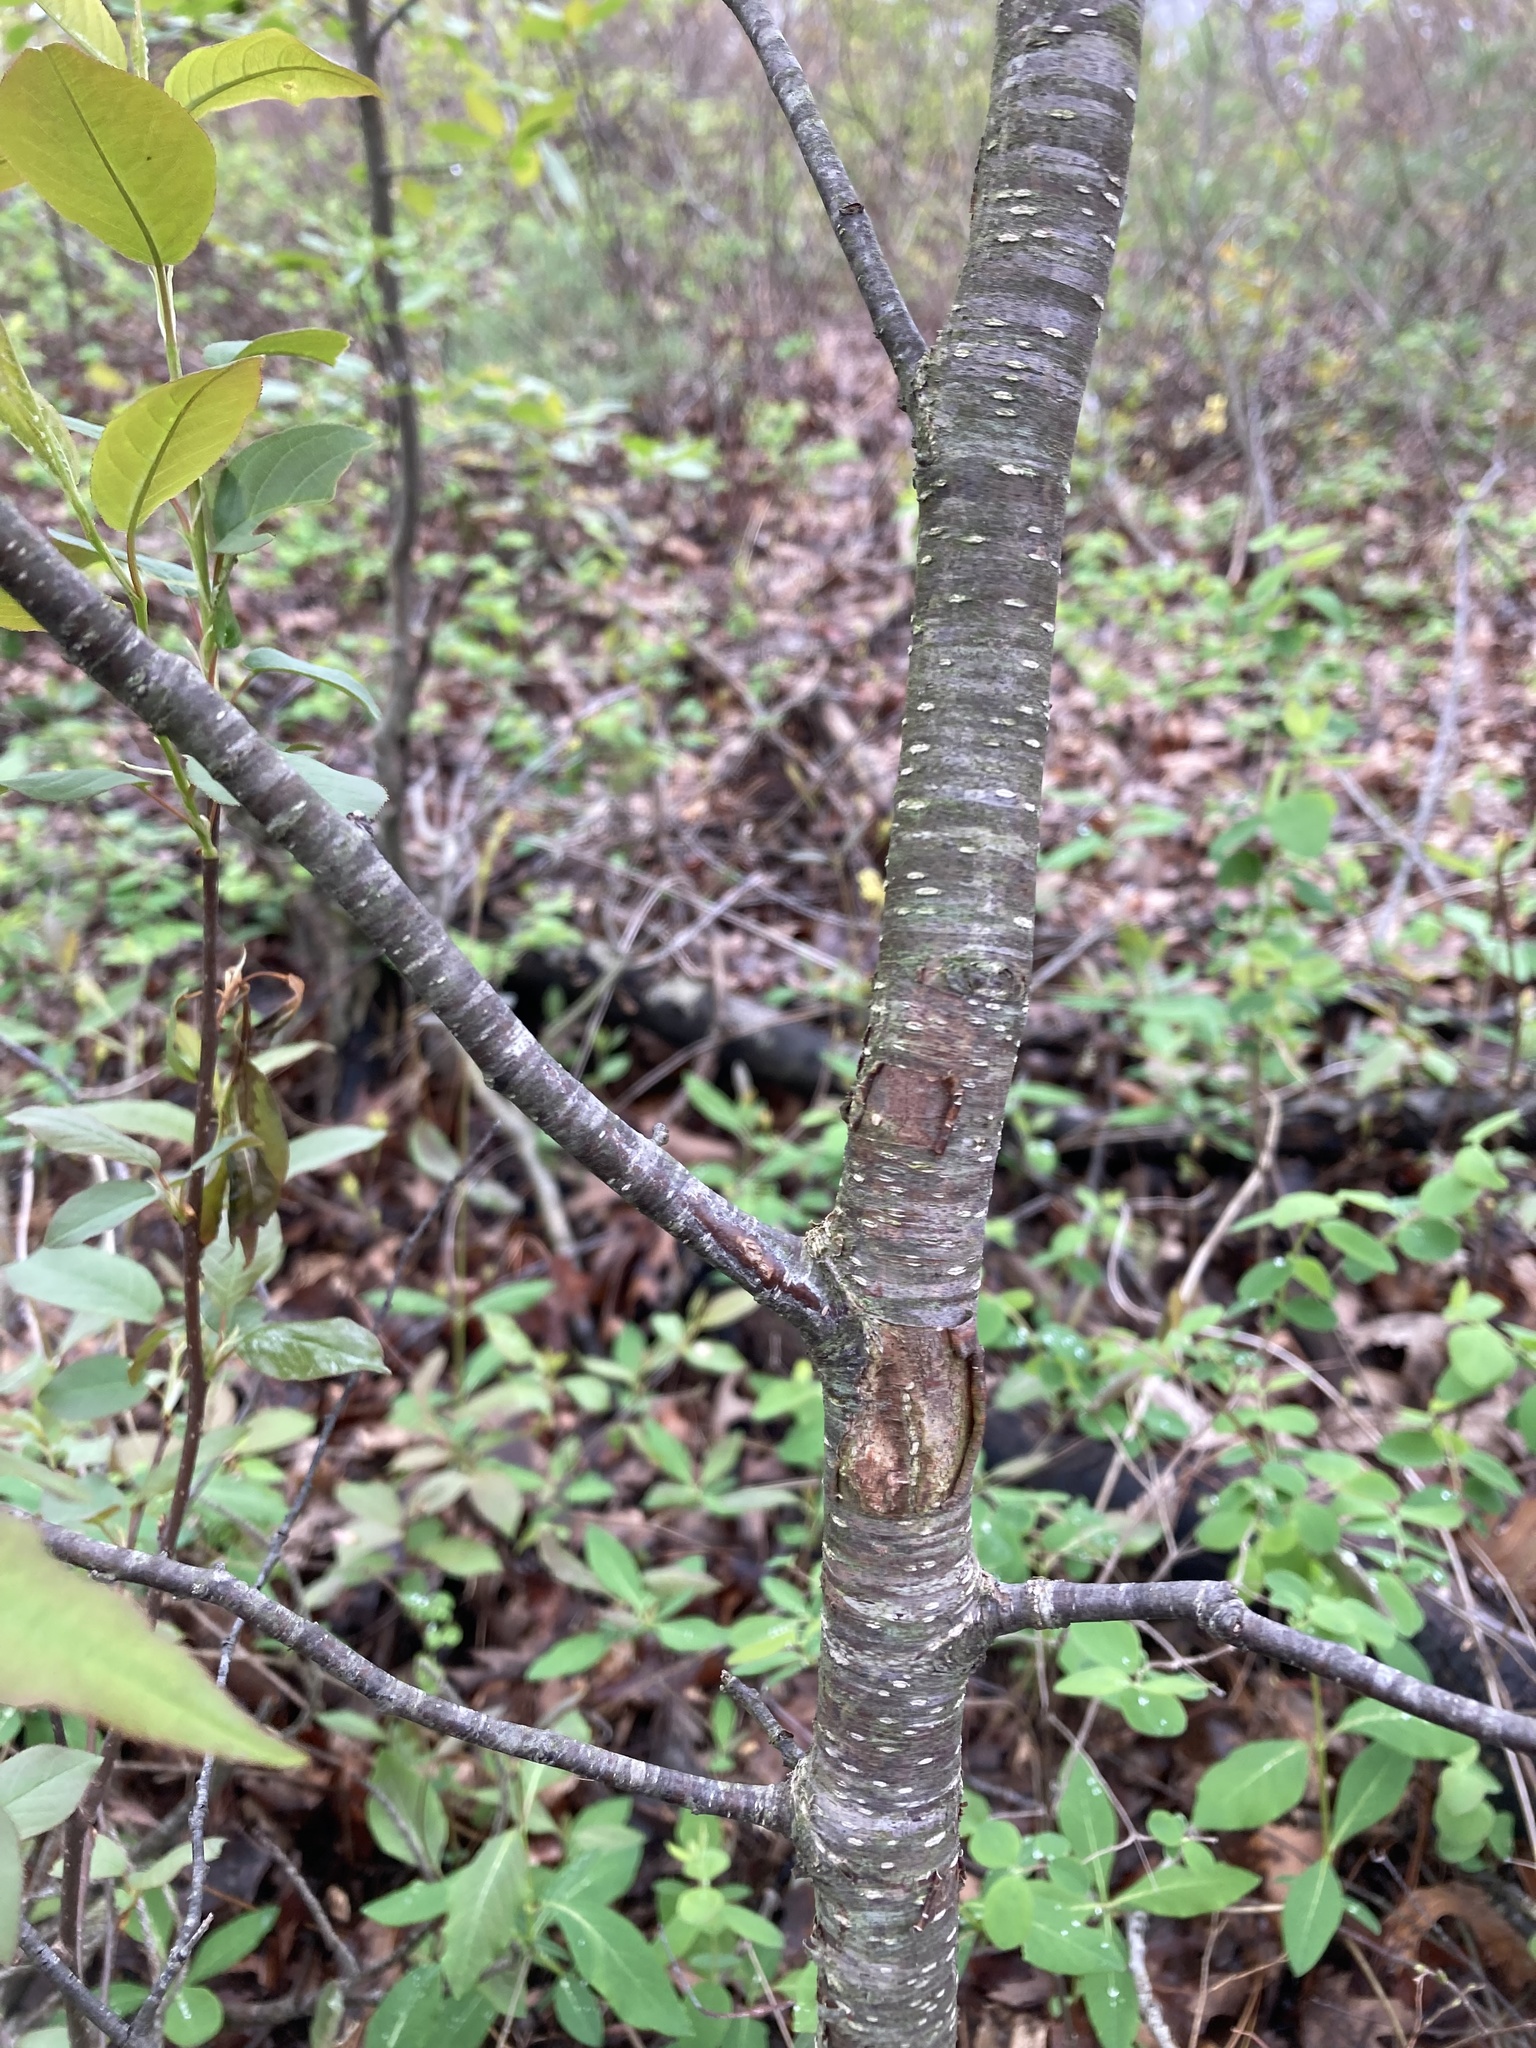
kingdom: Plantae
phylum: Tracheophyta
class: Magnoliopsida
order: Rosales
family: Rosaceae
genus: Prunus
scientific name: Prunus serotina
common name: Black cherry
